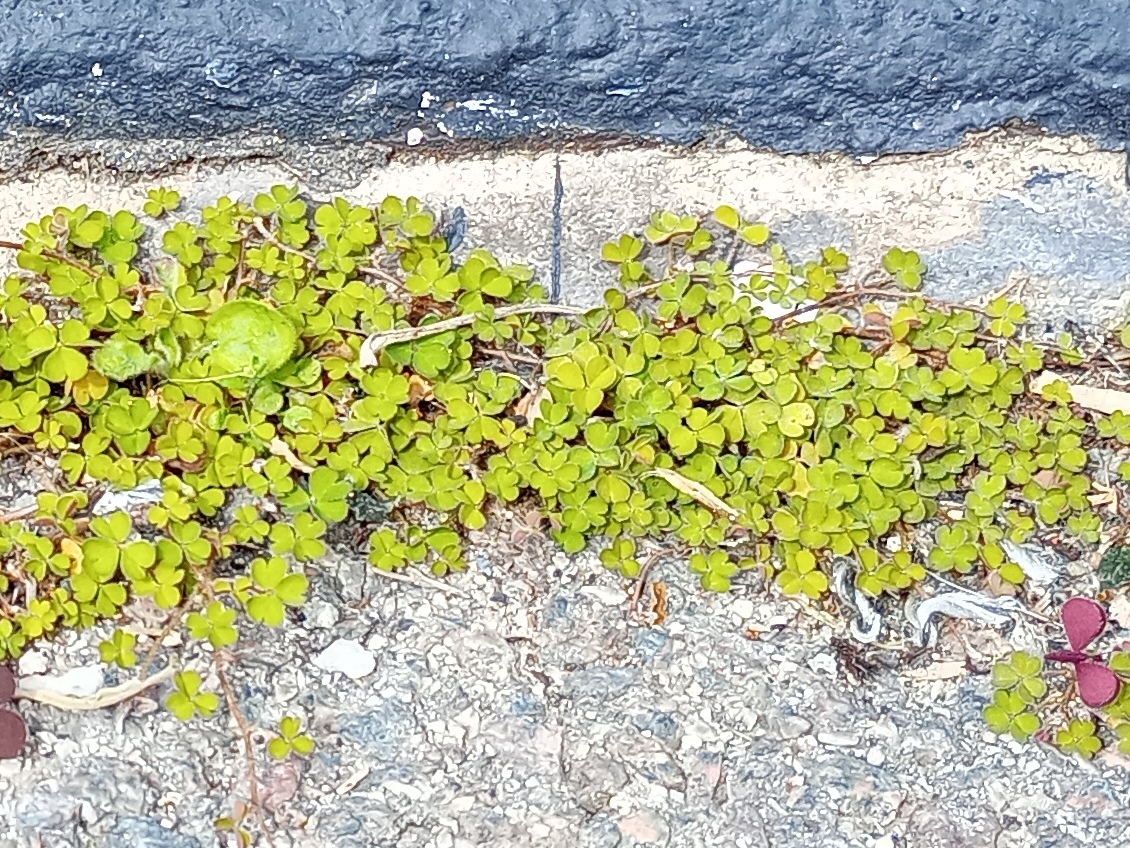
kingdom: Plantae
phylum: Tracheophyta
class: Magnoliopsida
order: Oxalidales
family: Oxalidaceae
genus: Oxalis
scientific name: Oxalis exilis
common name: Least yellow-sorrel
